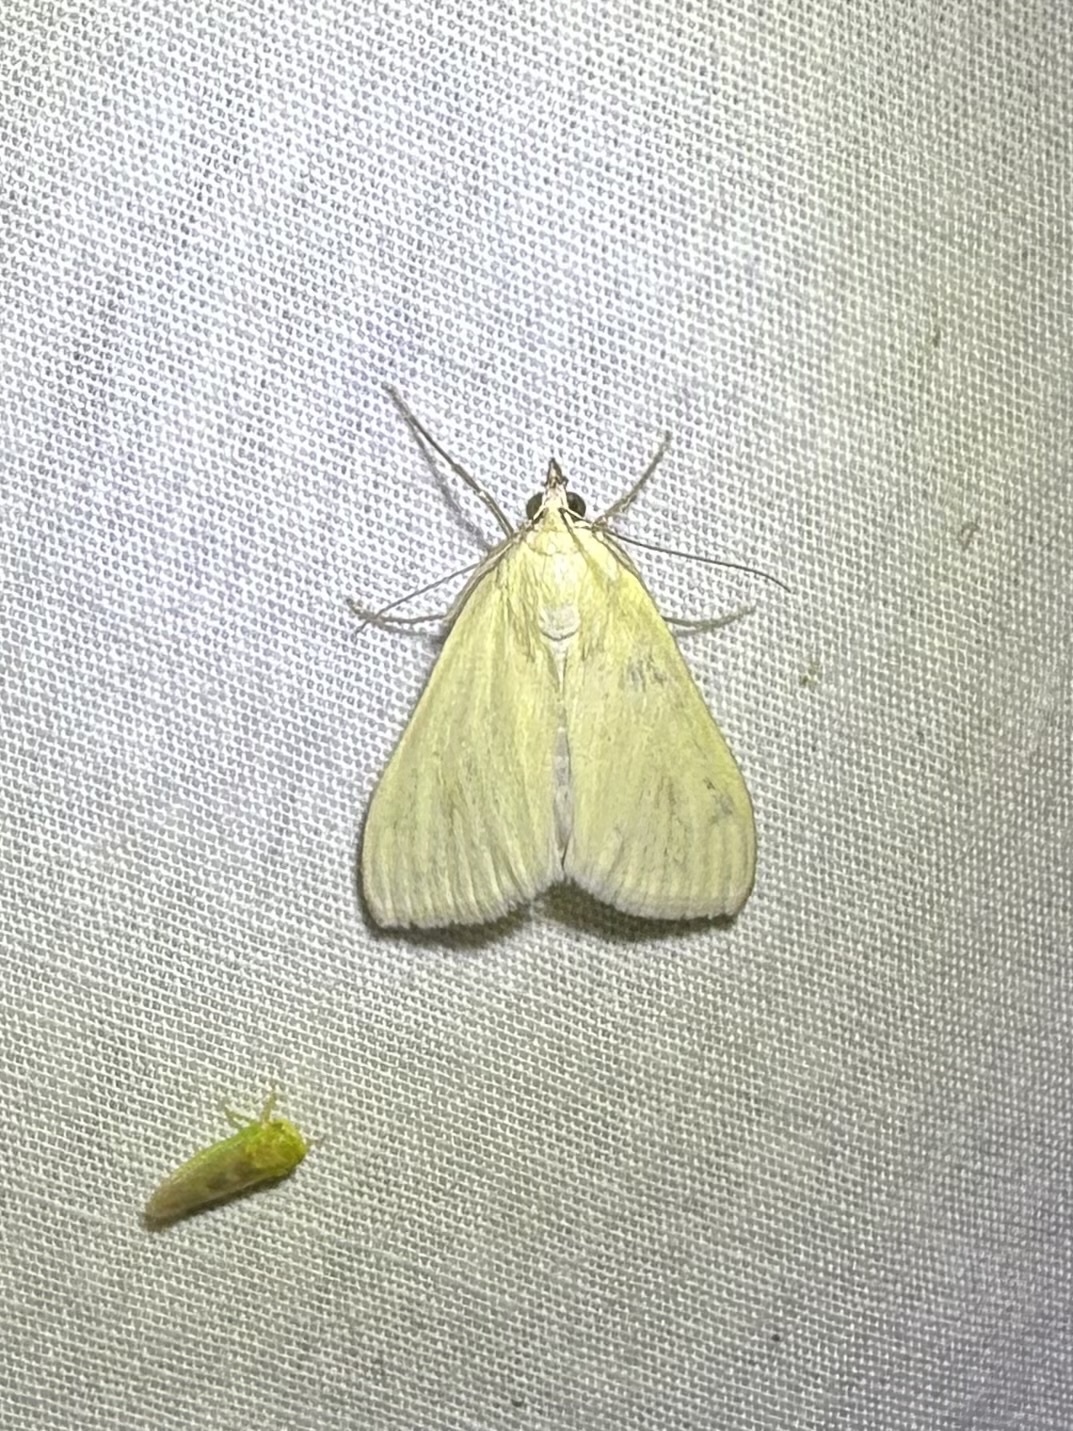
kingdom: Animalia
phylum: Arthropoda
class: Insecta
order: Lepidoptera
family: Crambidae
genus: Sitochroa
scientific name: Sitochroa palealis
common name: Greenish-yellow sitochroa moth
